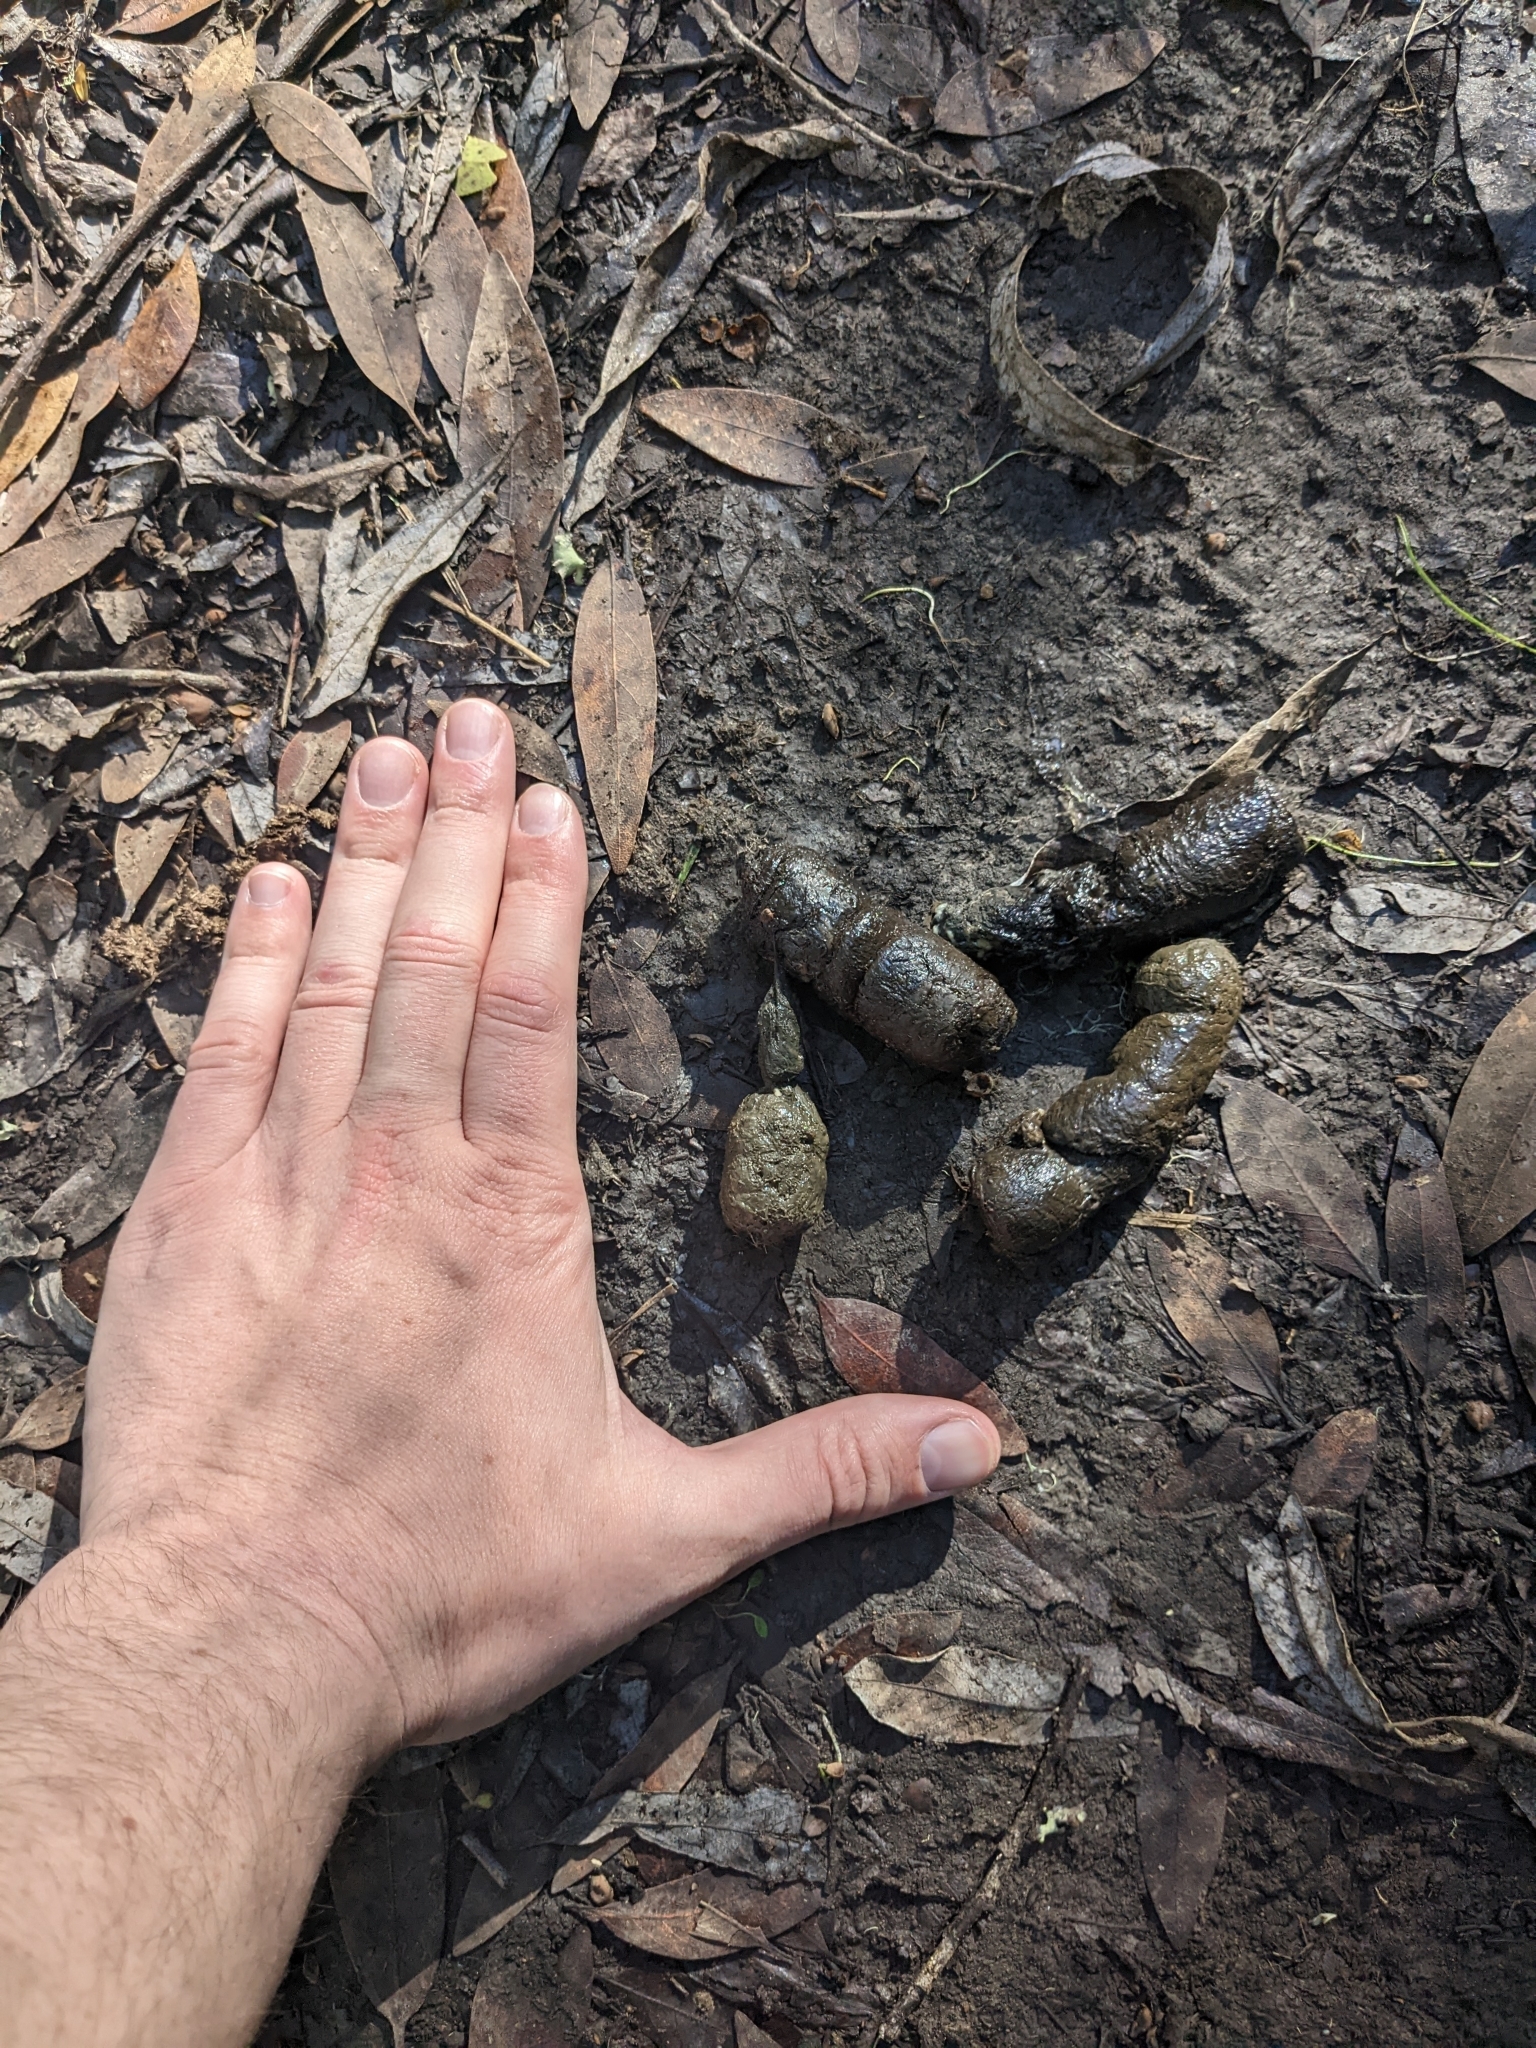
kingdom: Animalia
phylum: Chordata
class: Mammalia
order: Carnivora
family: Felidae
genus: Lynx
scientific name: Lynx rufus
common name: Bobcat
